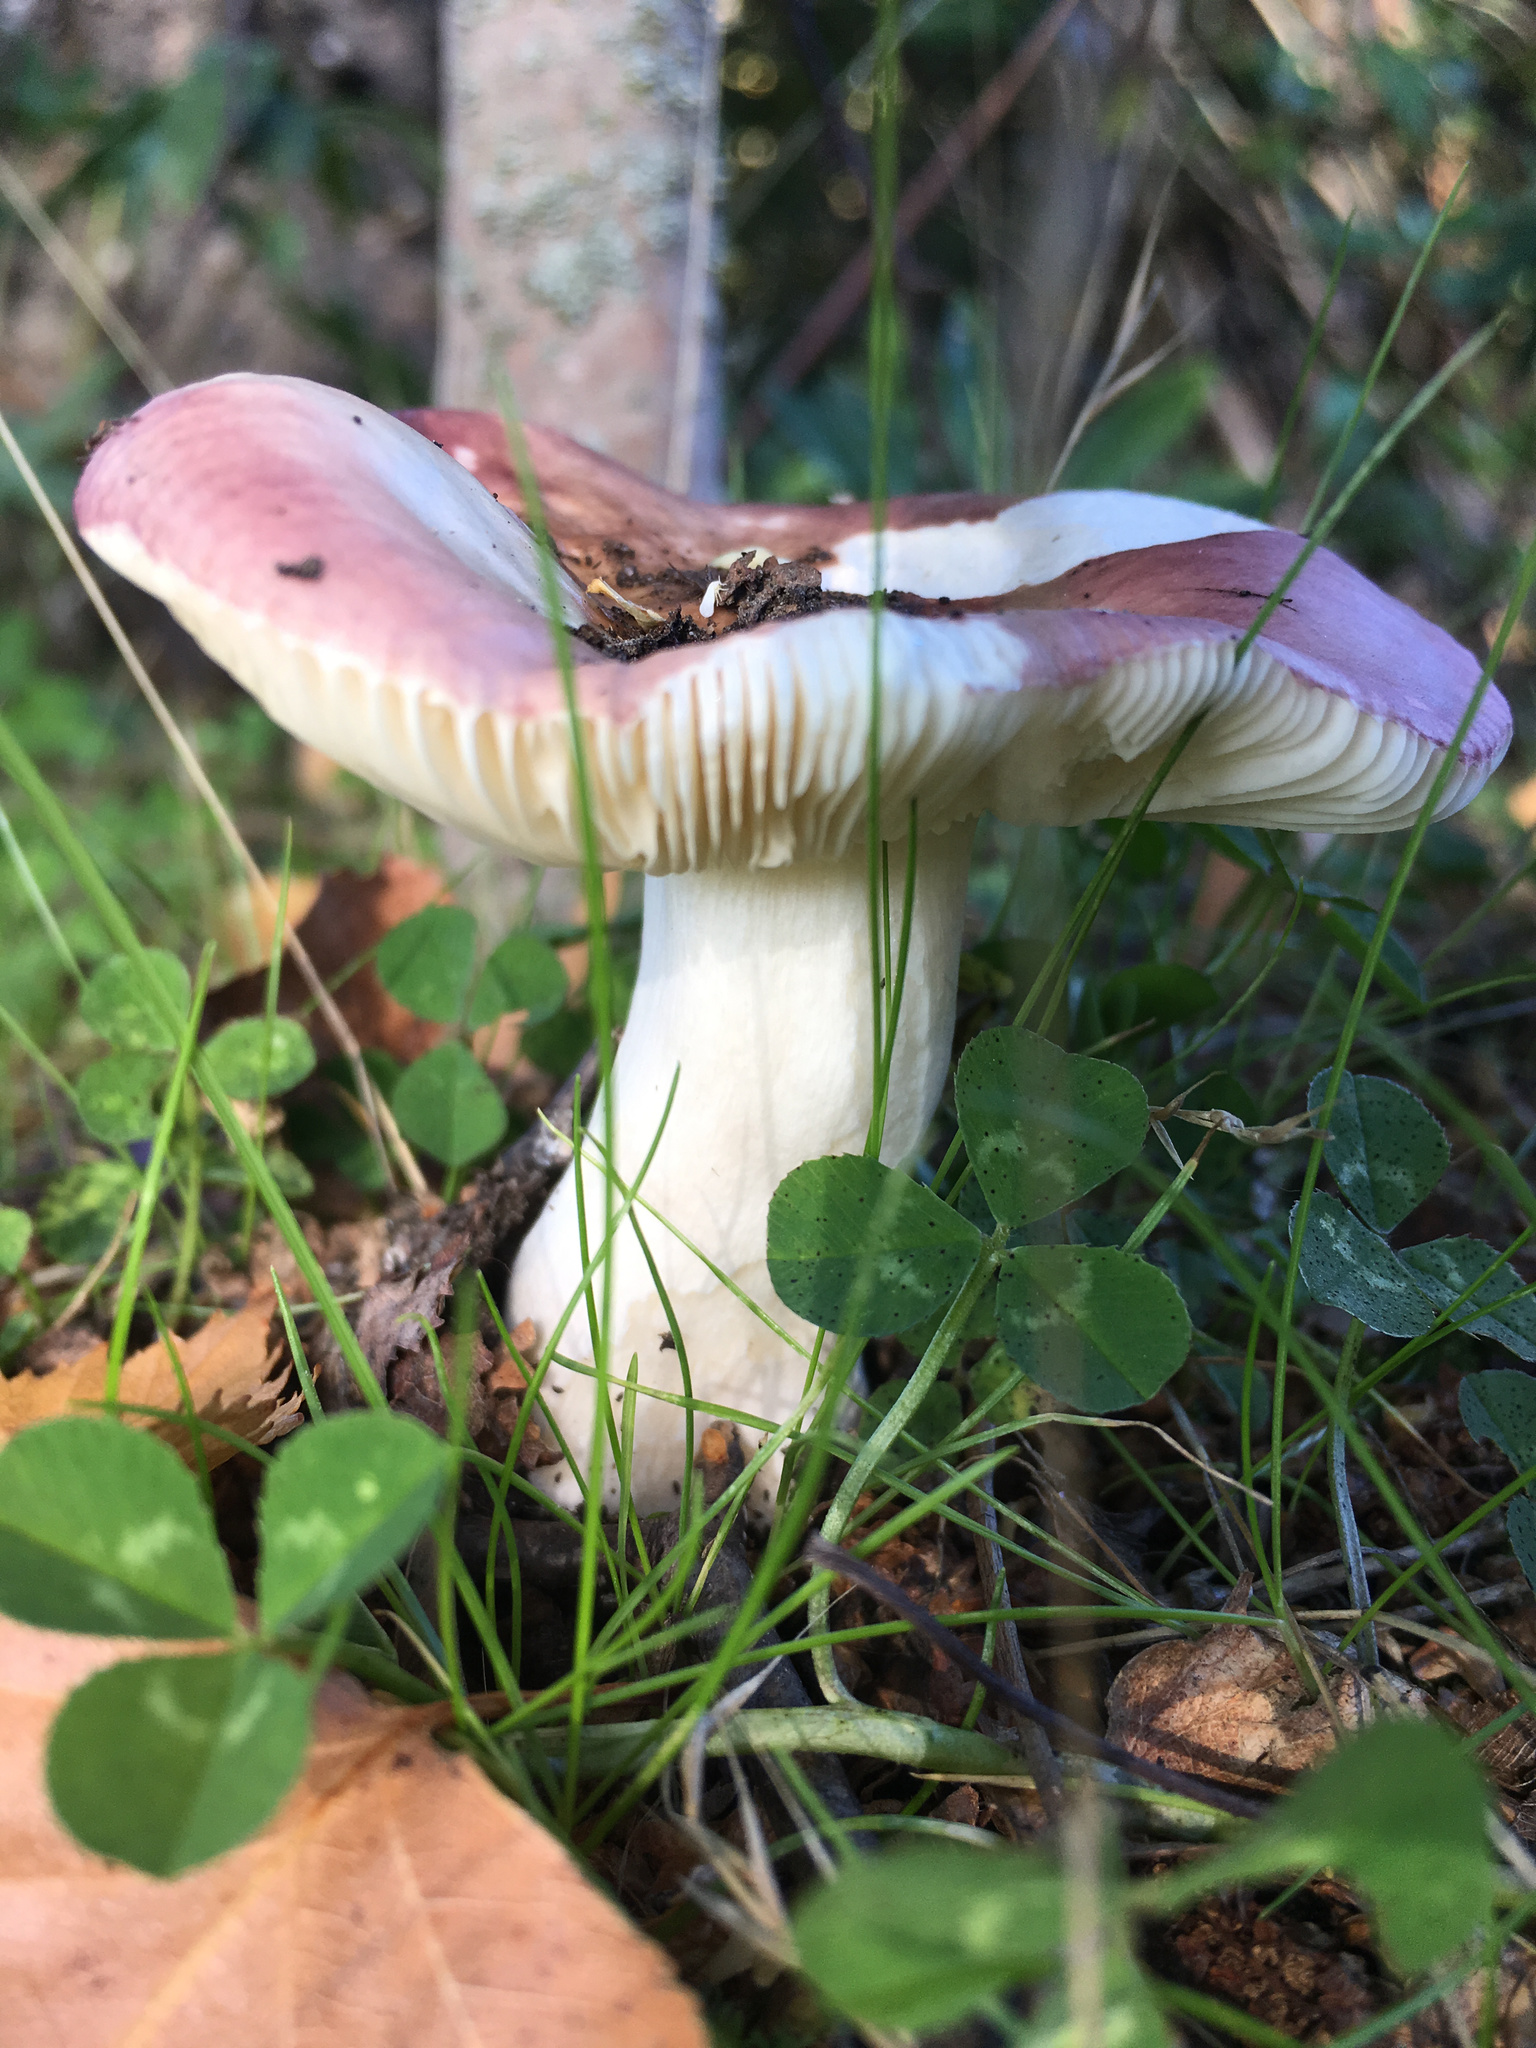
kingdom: Fungi
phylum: Basidiomycota
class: Agaricomycetes
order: Russulales
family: Russulaceae
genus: Russula
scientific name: Russula nitida
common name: Purple swamp brittlegill
